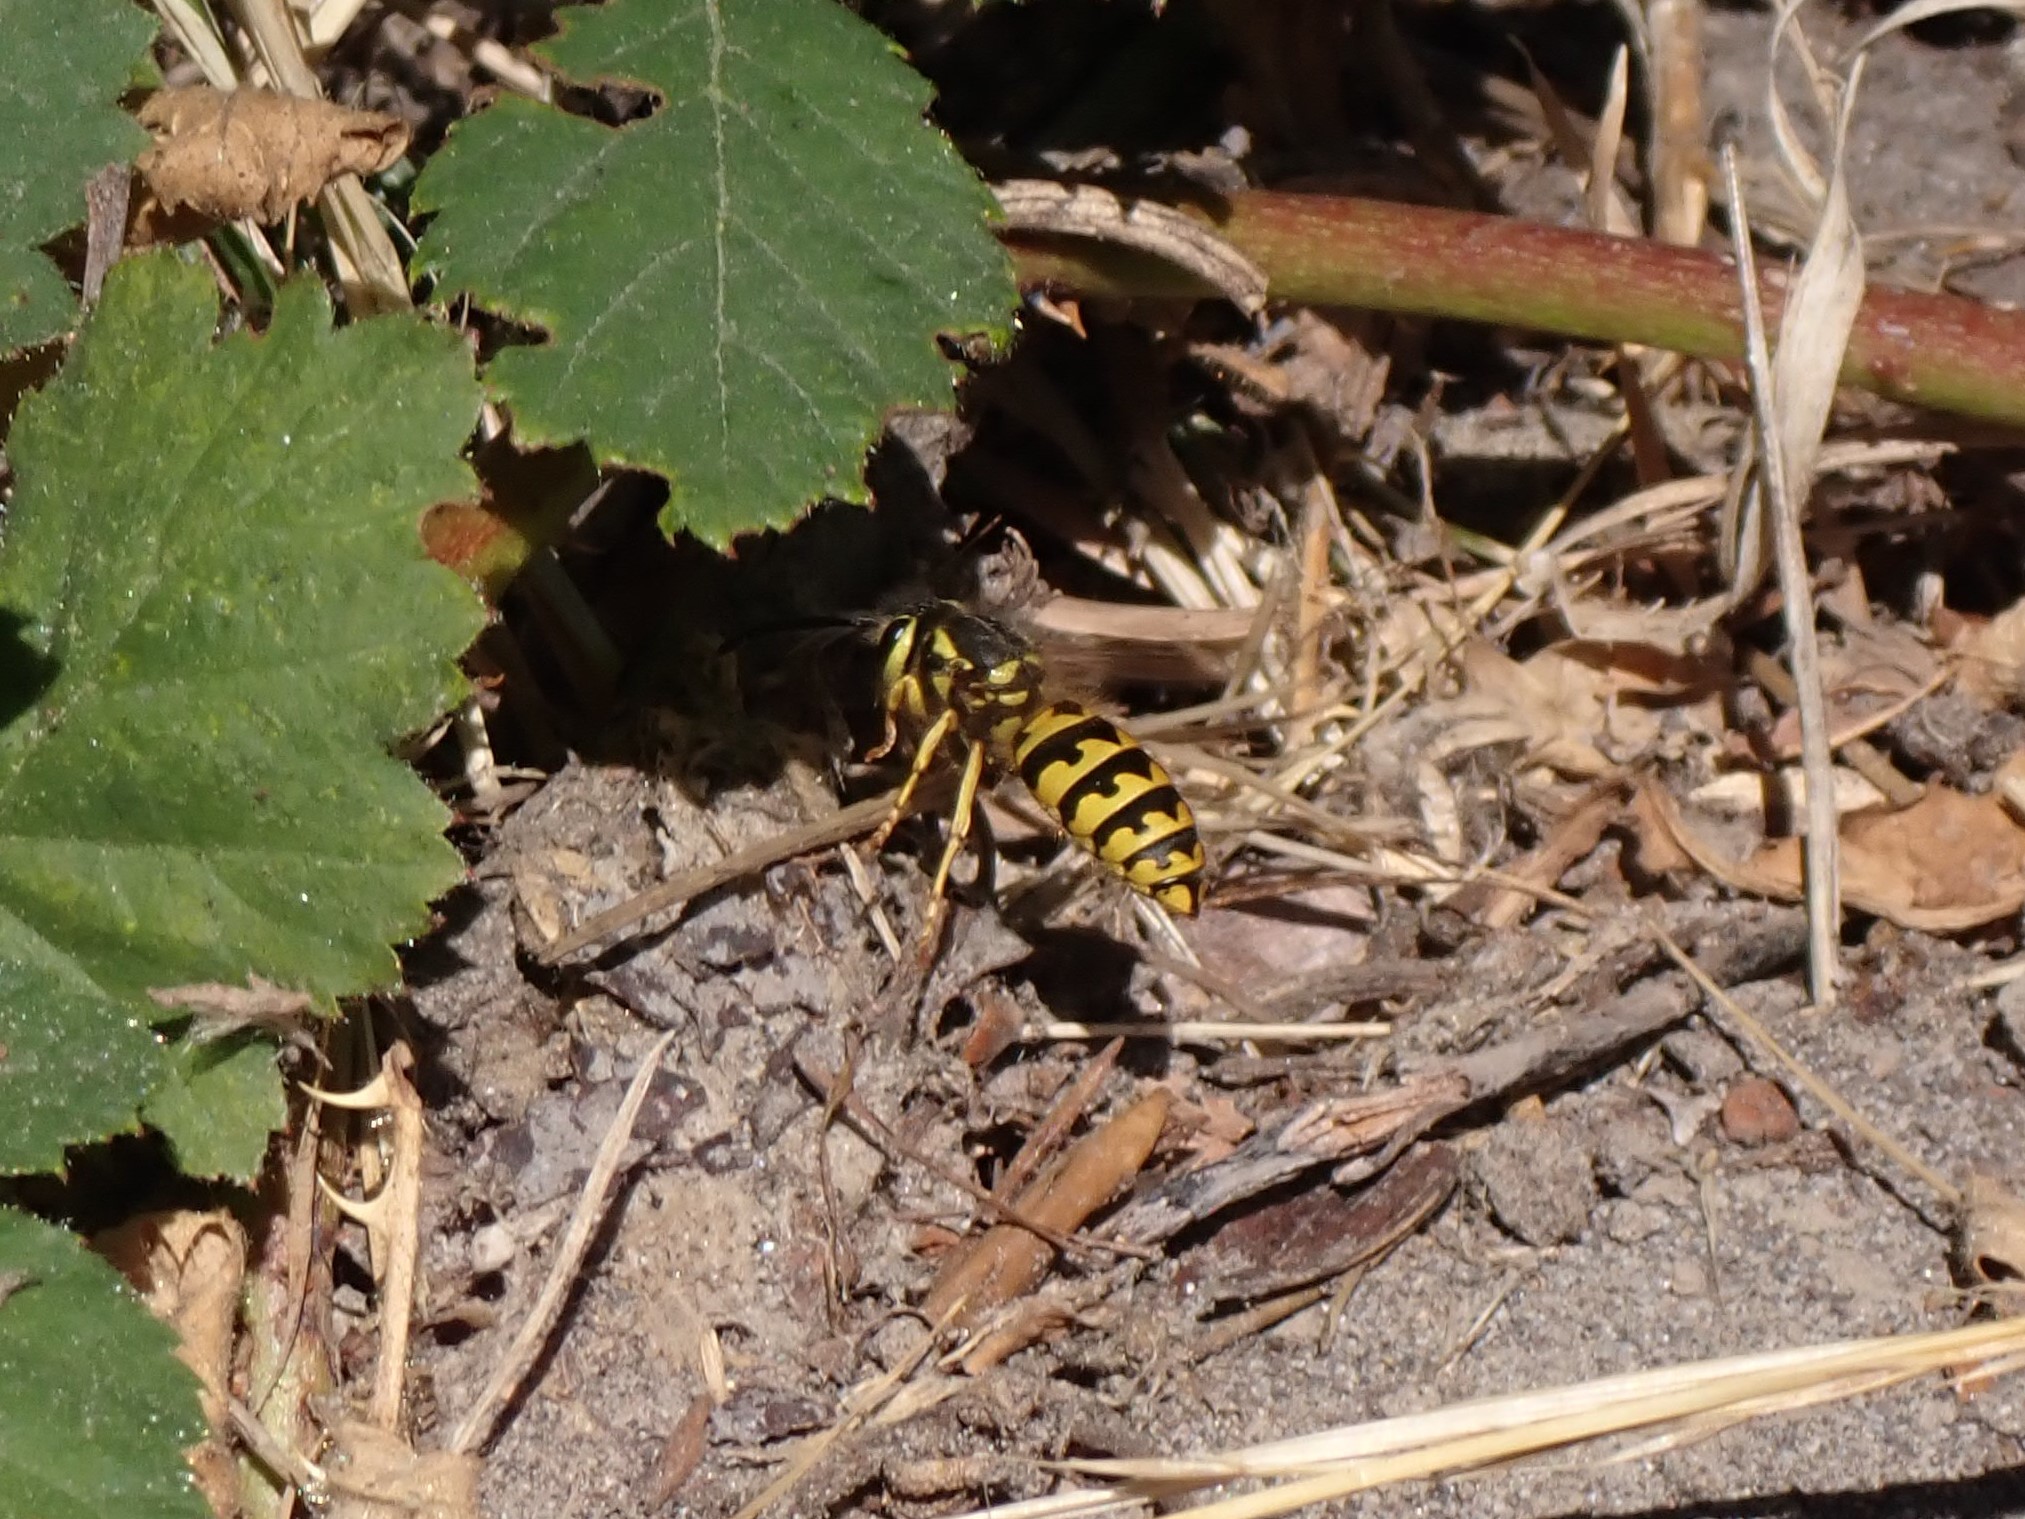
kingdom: Animalia
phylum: Arthropoda
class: Insecta
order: Hymenoptera
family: Vespidae
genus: Vespula
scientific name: Vespula pensylvanica
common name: Western yellowjacket
